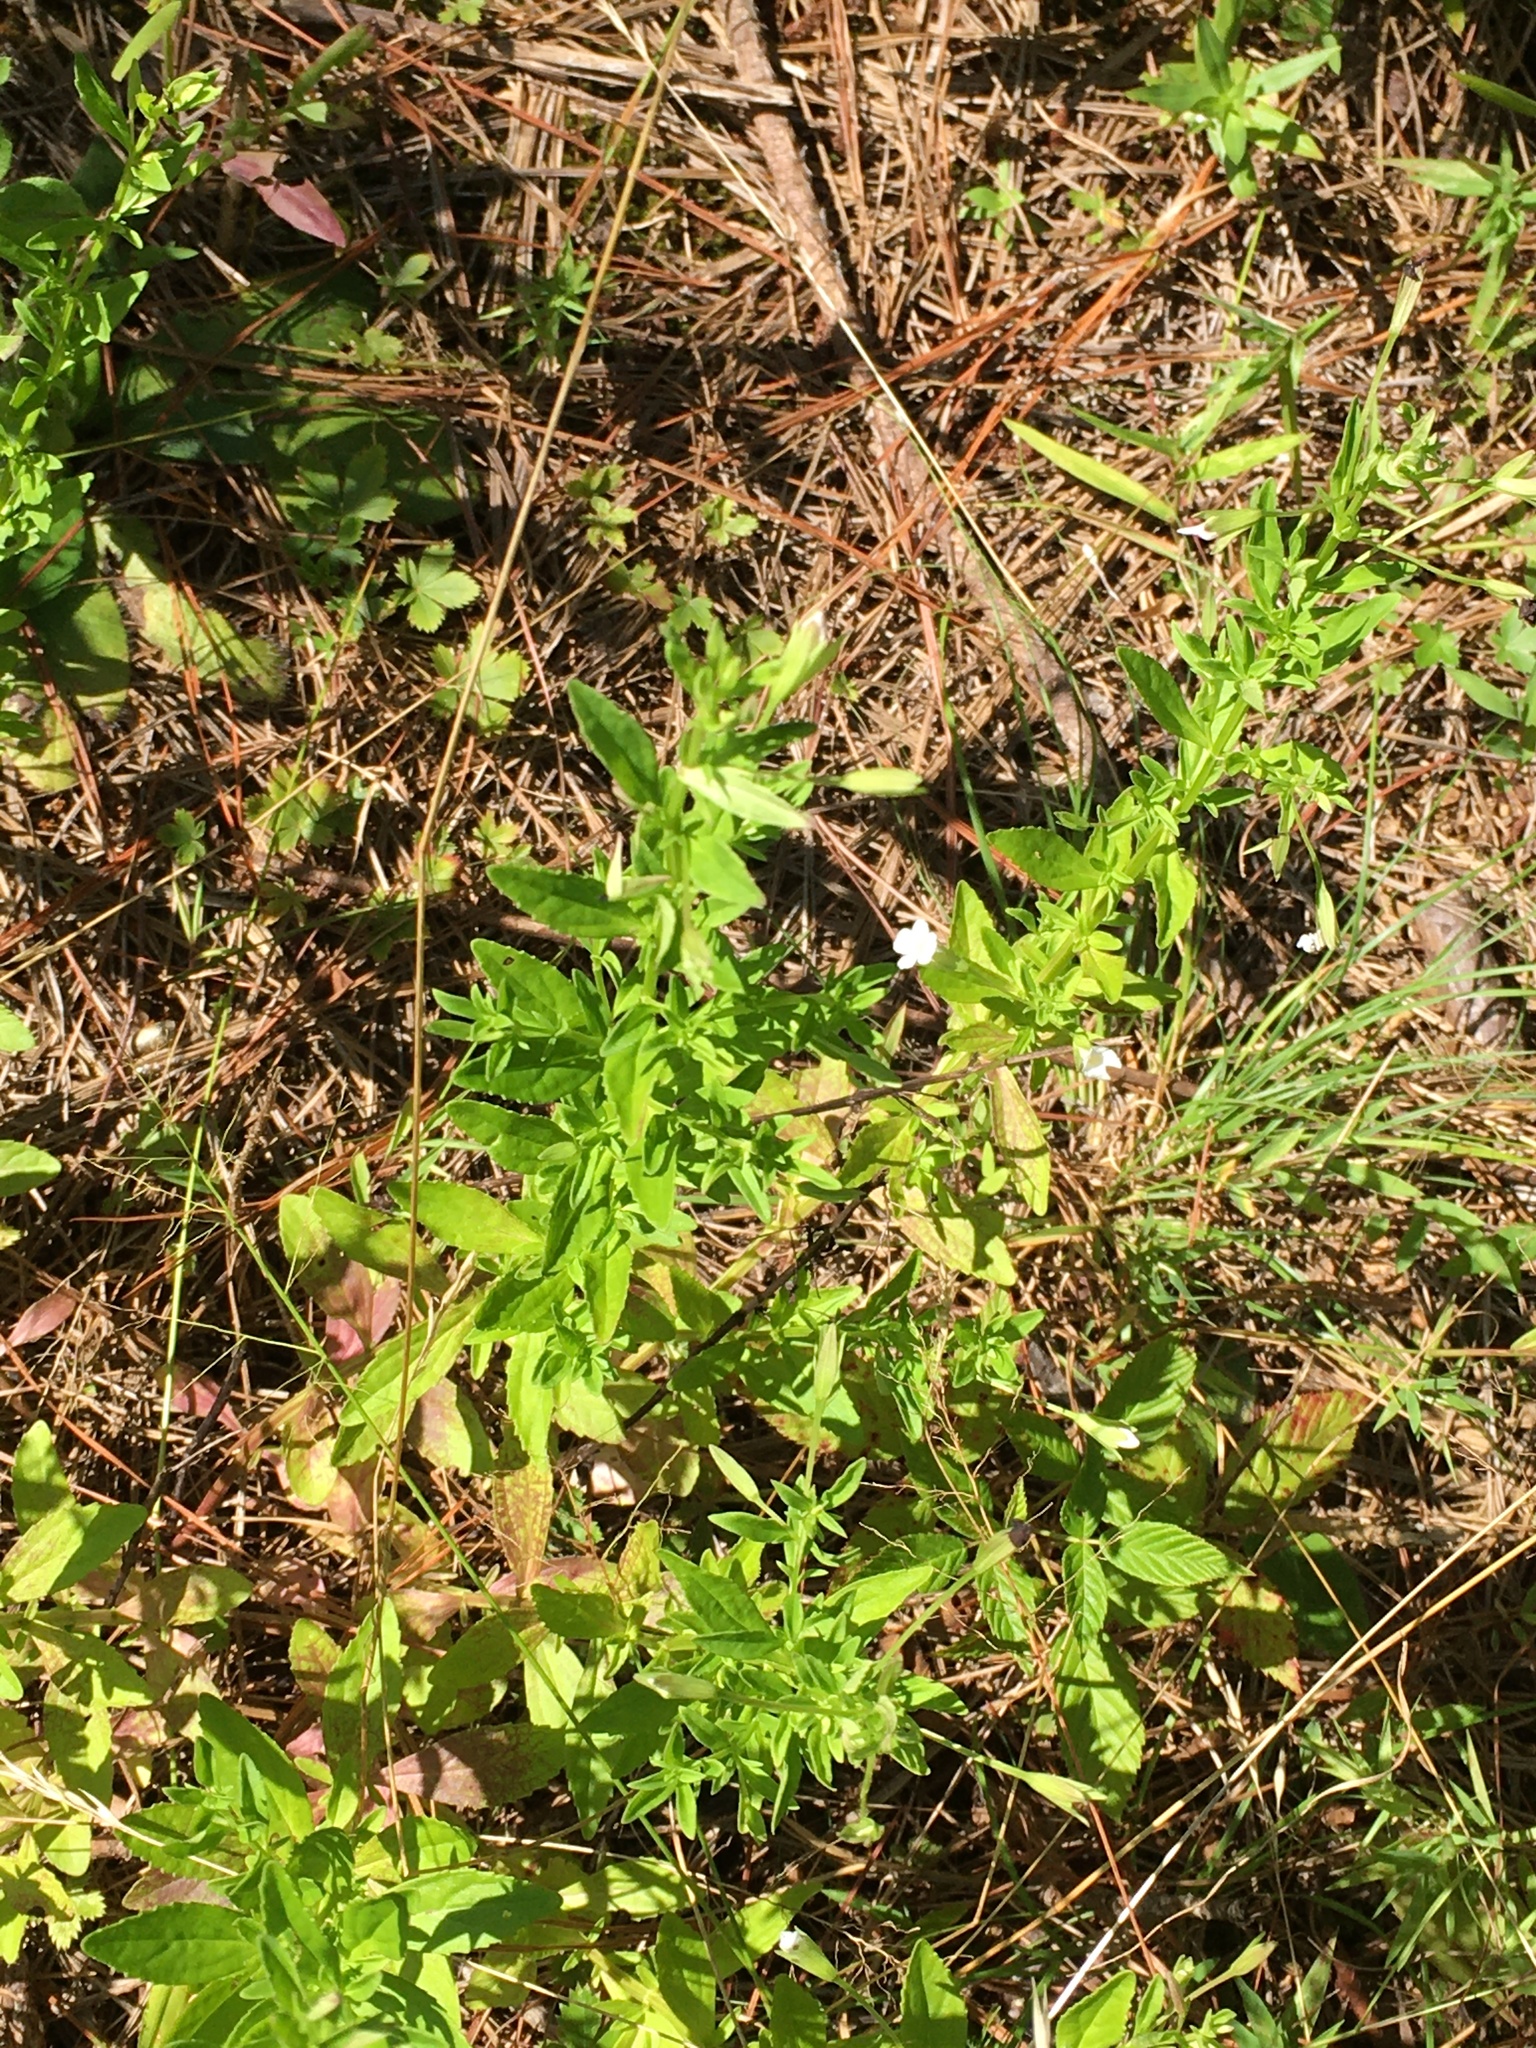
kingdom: Plantae
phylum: Tracheophyta
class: Magnoliopsida
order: Lamiales
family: Plantaginaceae
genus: Mecardonia
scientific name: Mecardonia acuminata
